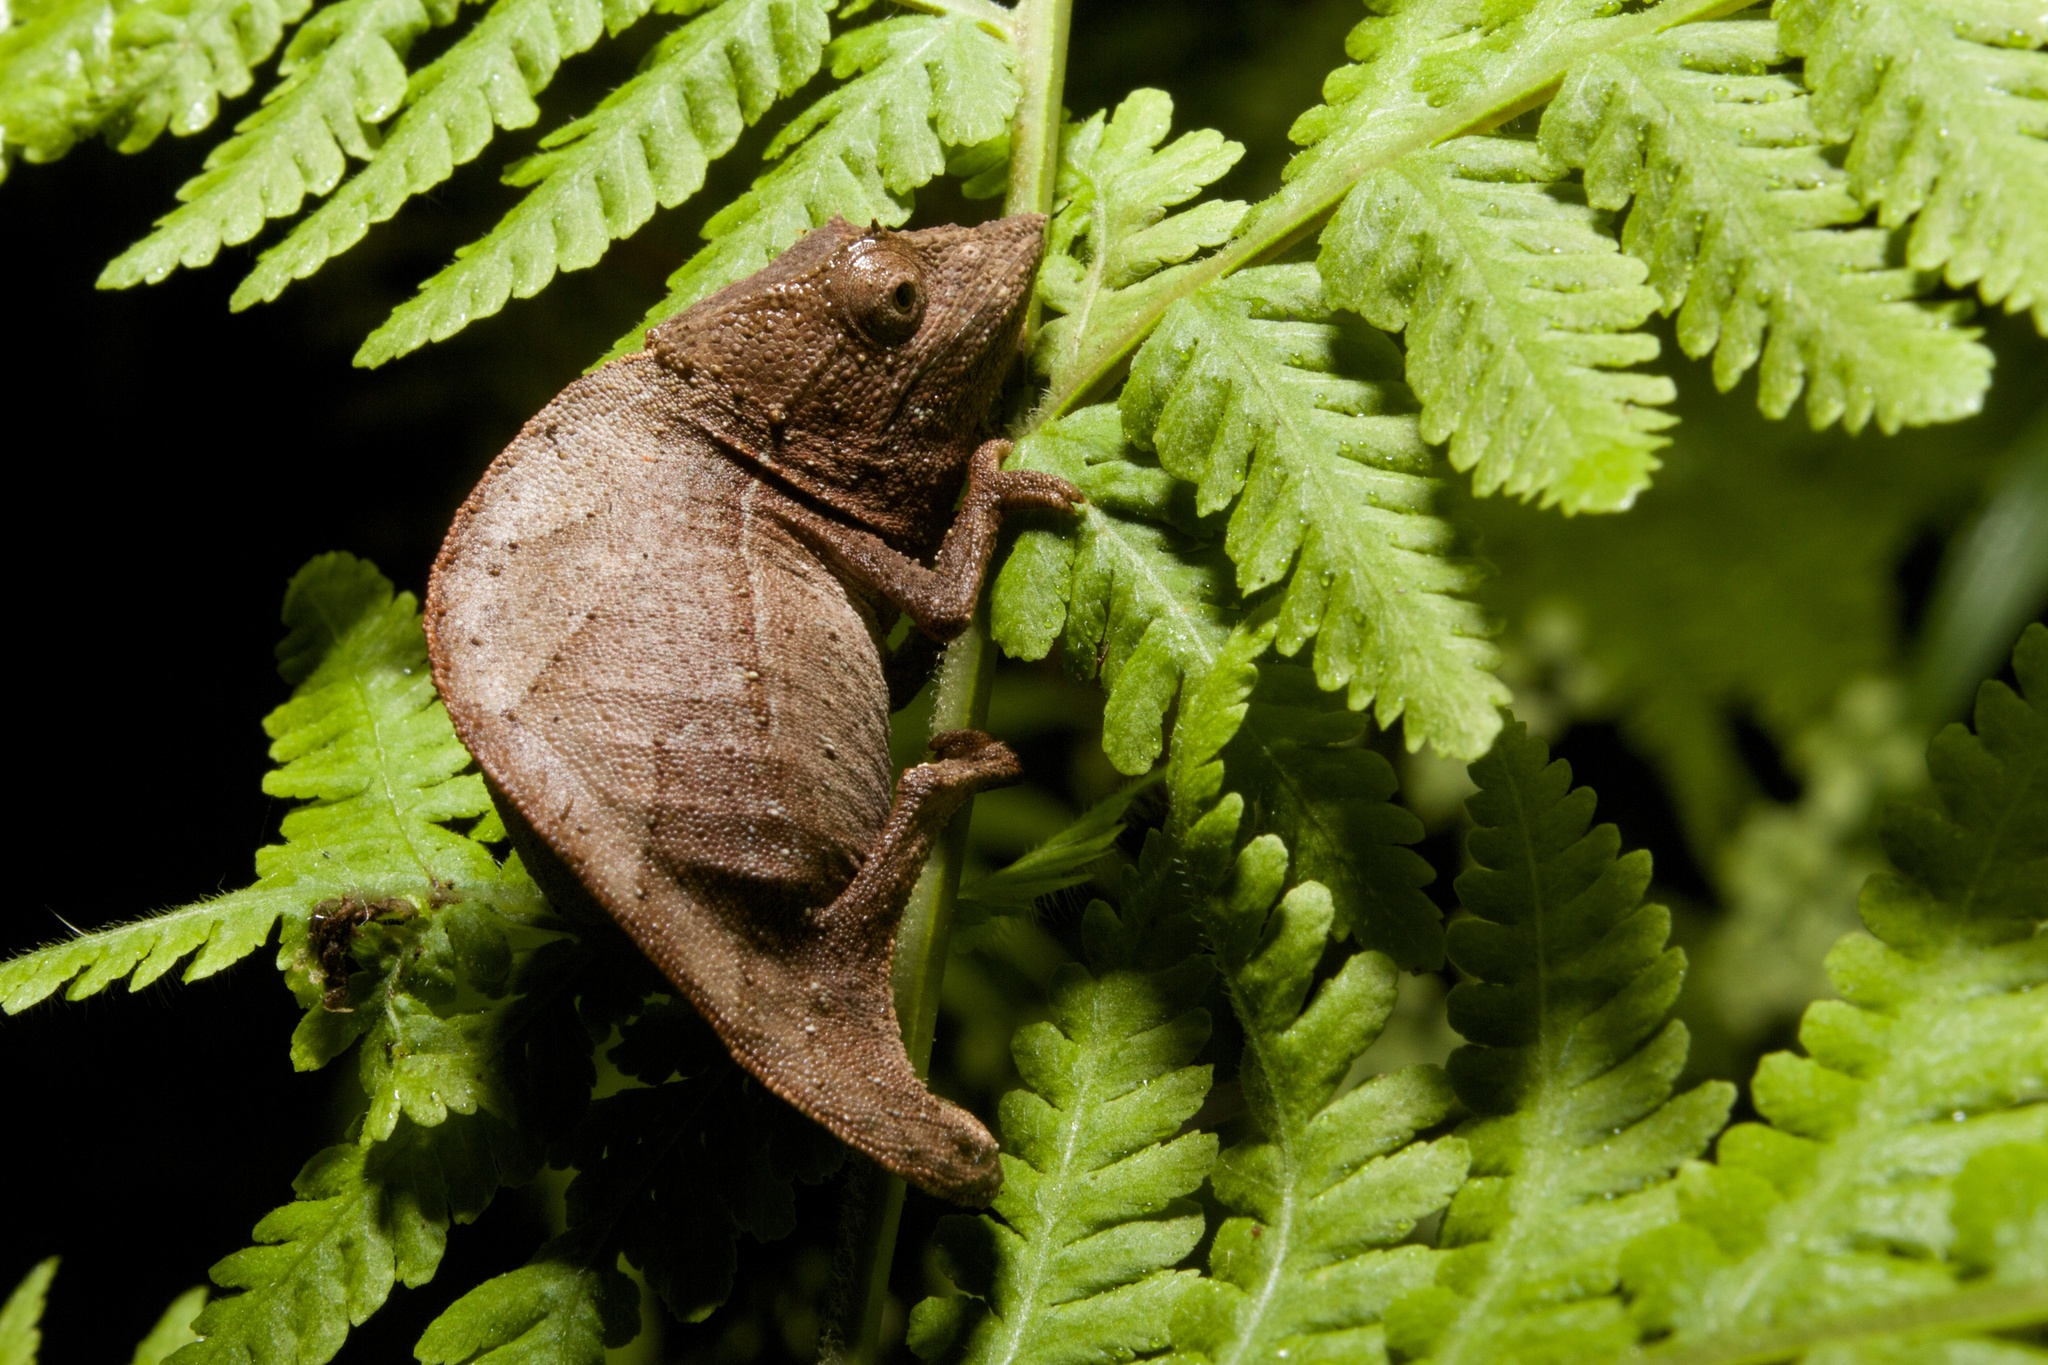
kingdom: Animalia
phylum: Chordata
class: Squamata
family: Chamaeleonidae
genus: Palleon
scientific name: Palleon nasus
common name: Elongate leaf chameleon
